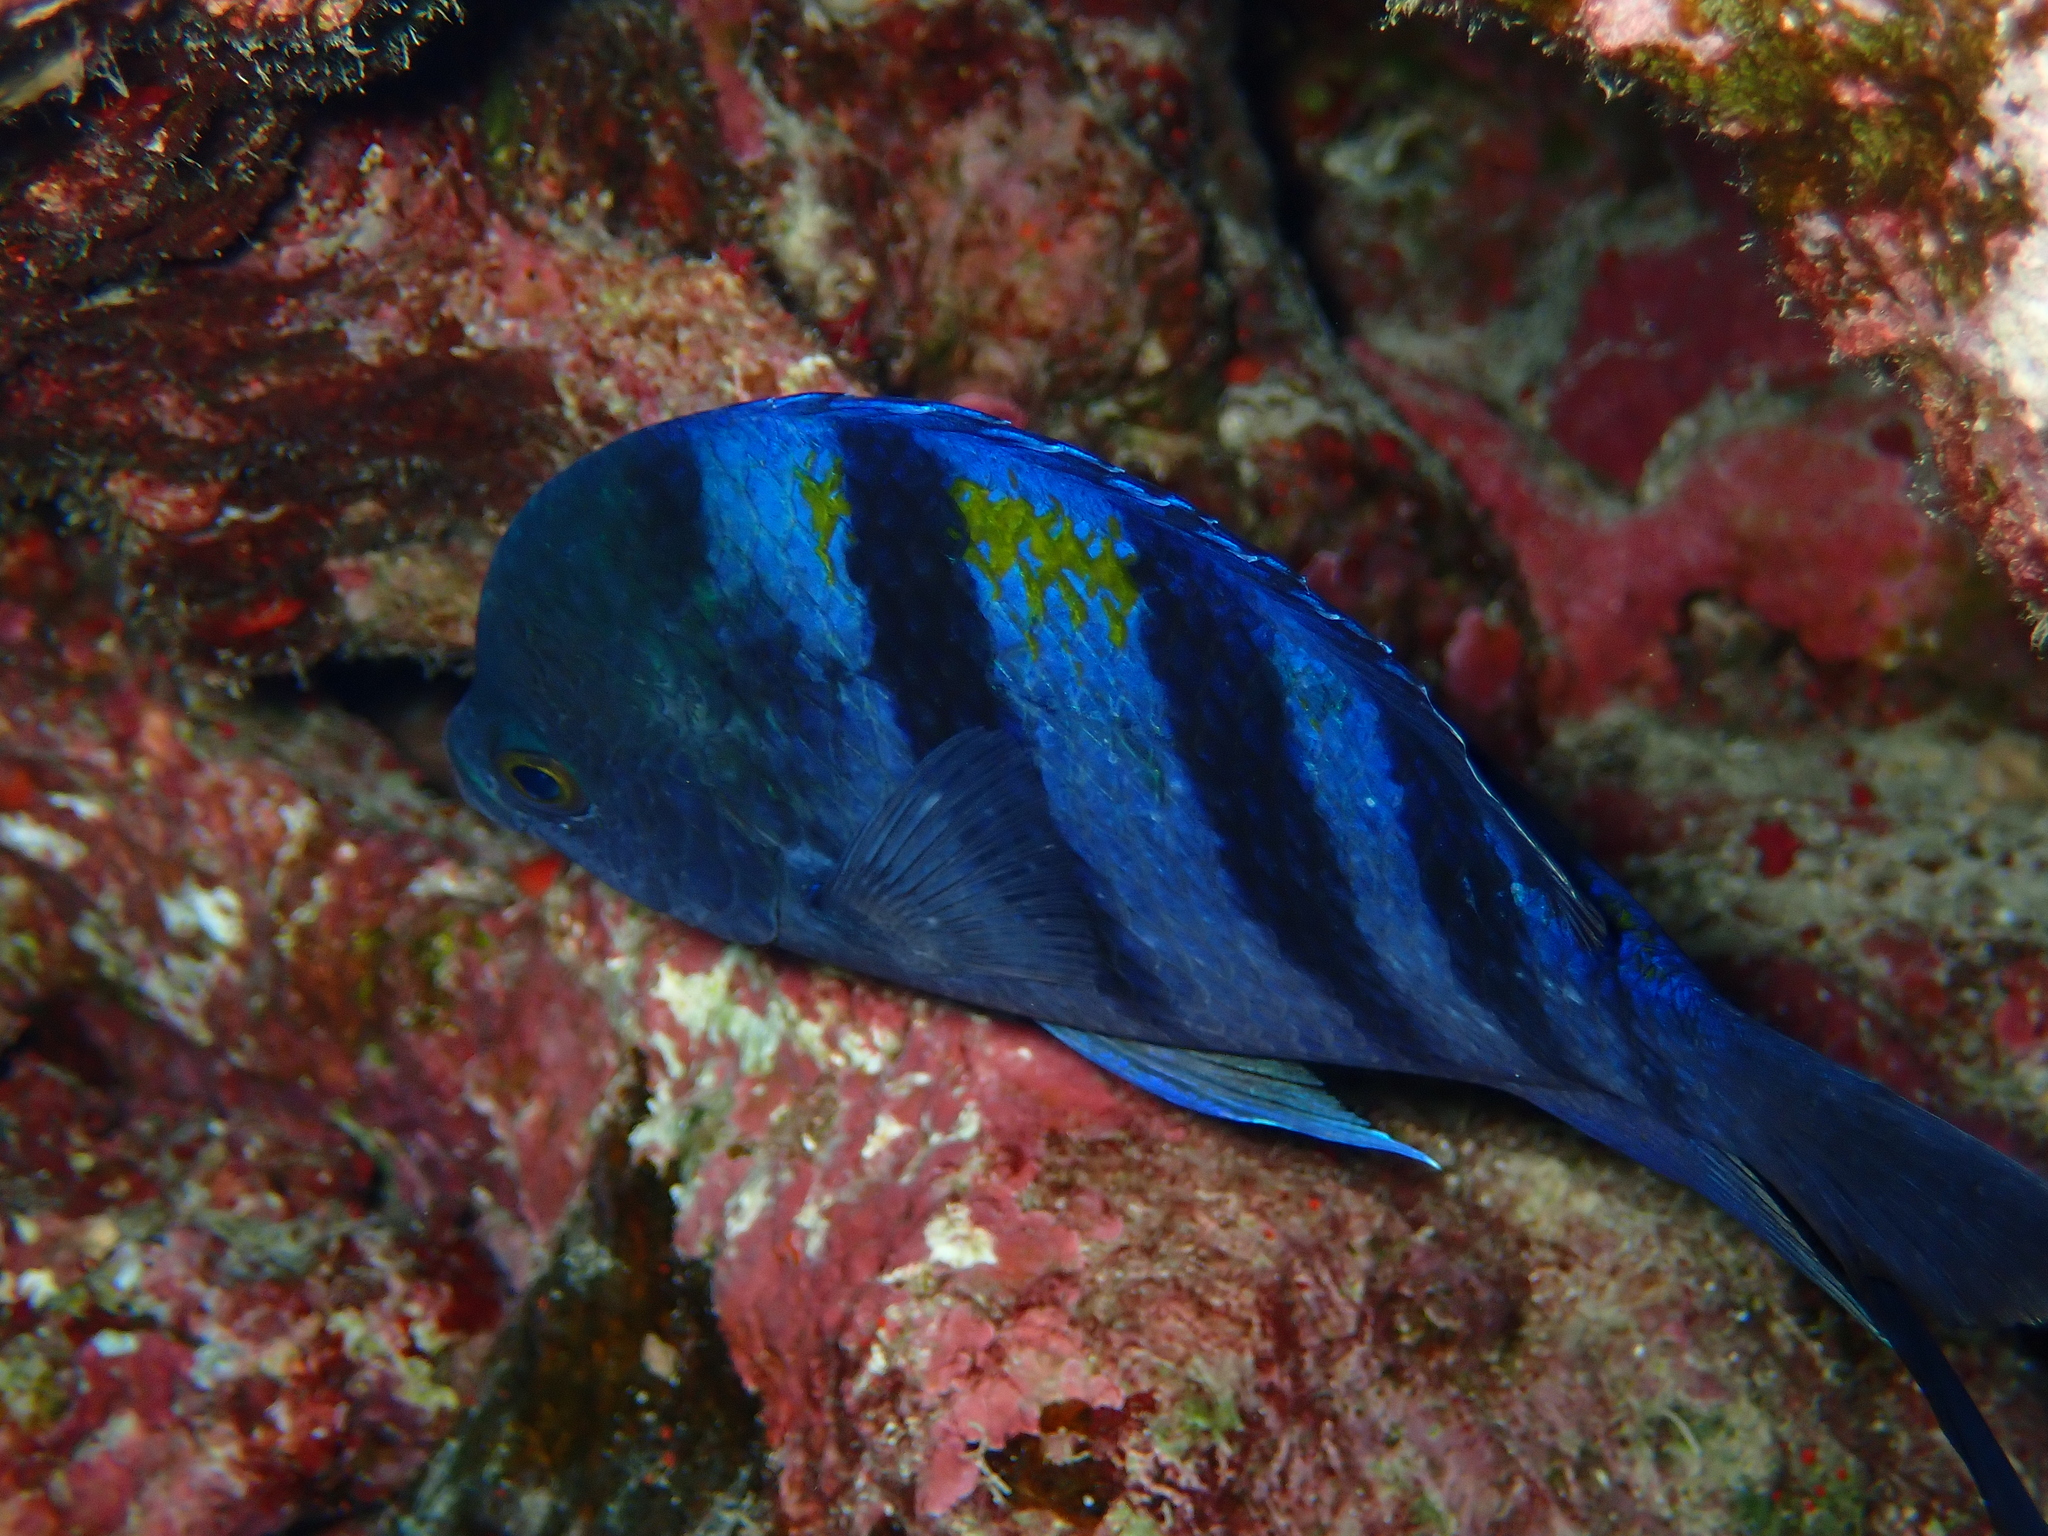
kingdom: Animalia
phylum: Chordata
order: Perciformes
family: Pomacentridae
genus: Abudefduf
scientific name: Abudefduf vaigiensis
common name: Indo-pacific sergeant
